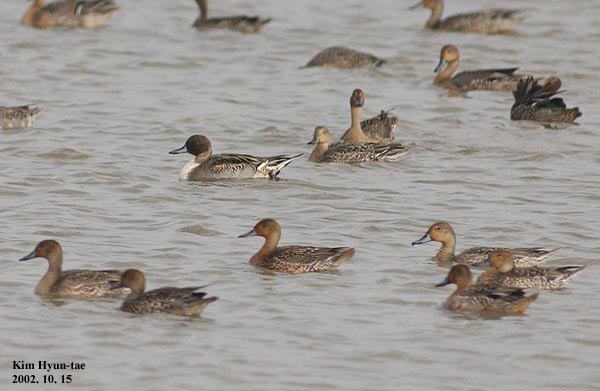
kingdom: Animalia
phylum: Chordata
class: Aves
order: Anseriformes
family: Anatidae
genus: Anas
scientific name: Anas acuta
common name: Northern pintail
